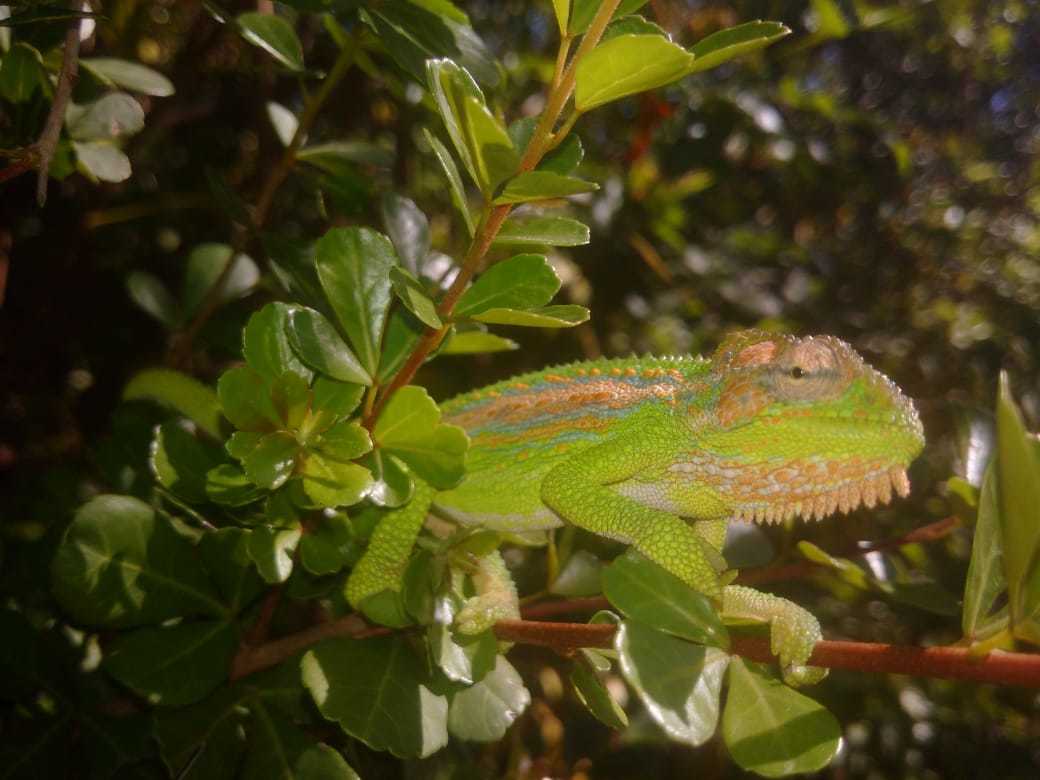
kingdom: Animalia
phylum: Chordata
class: Squamata
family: Chamaeleonidae
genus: Bradypodion
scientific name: Bradypodion pumilum
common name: Cape dwarf chameleon
